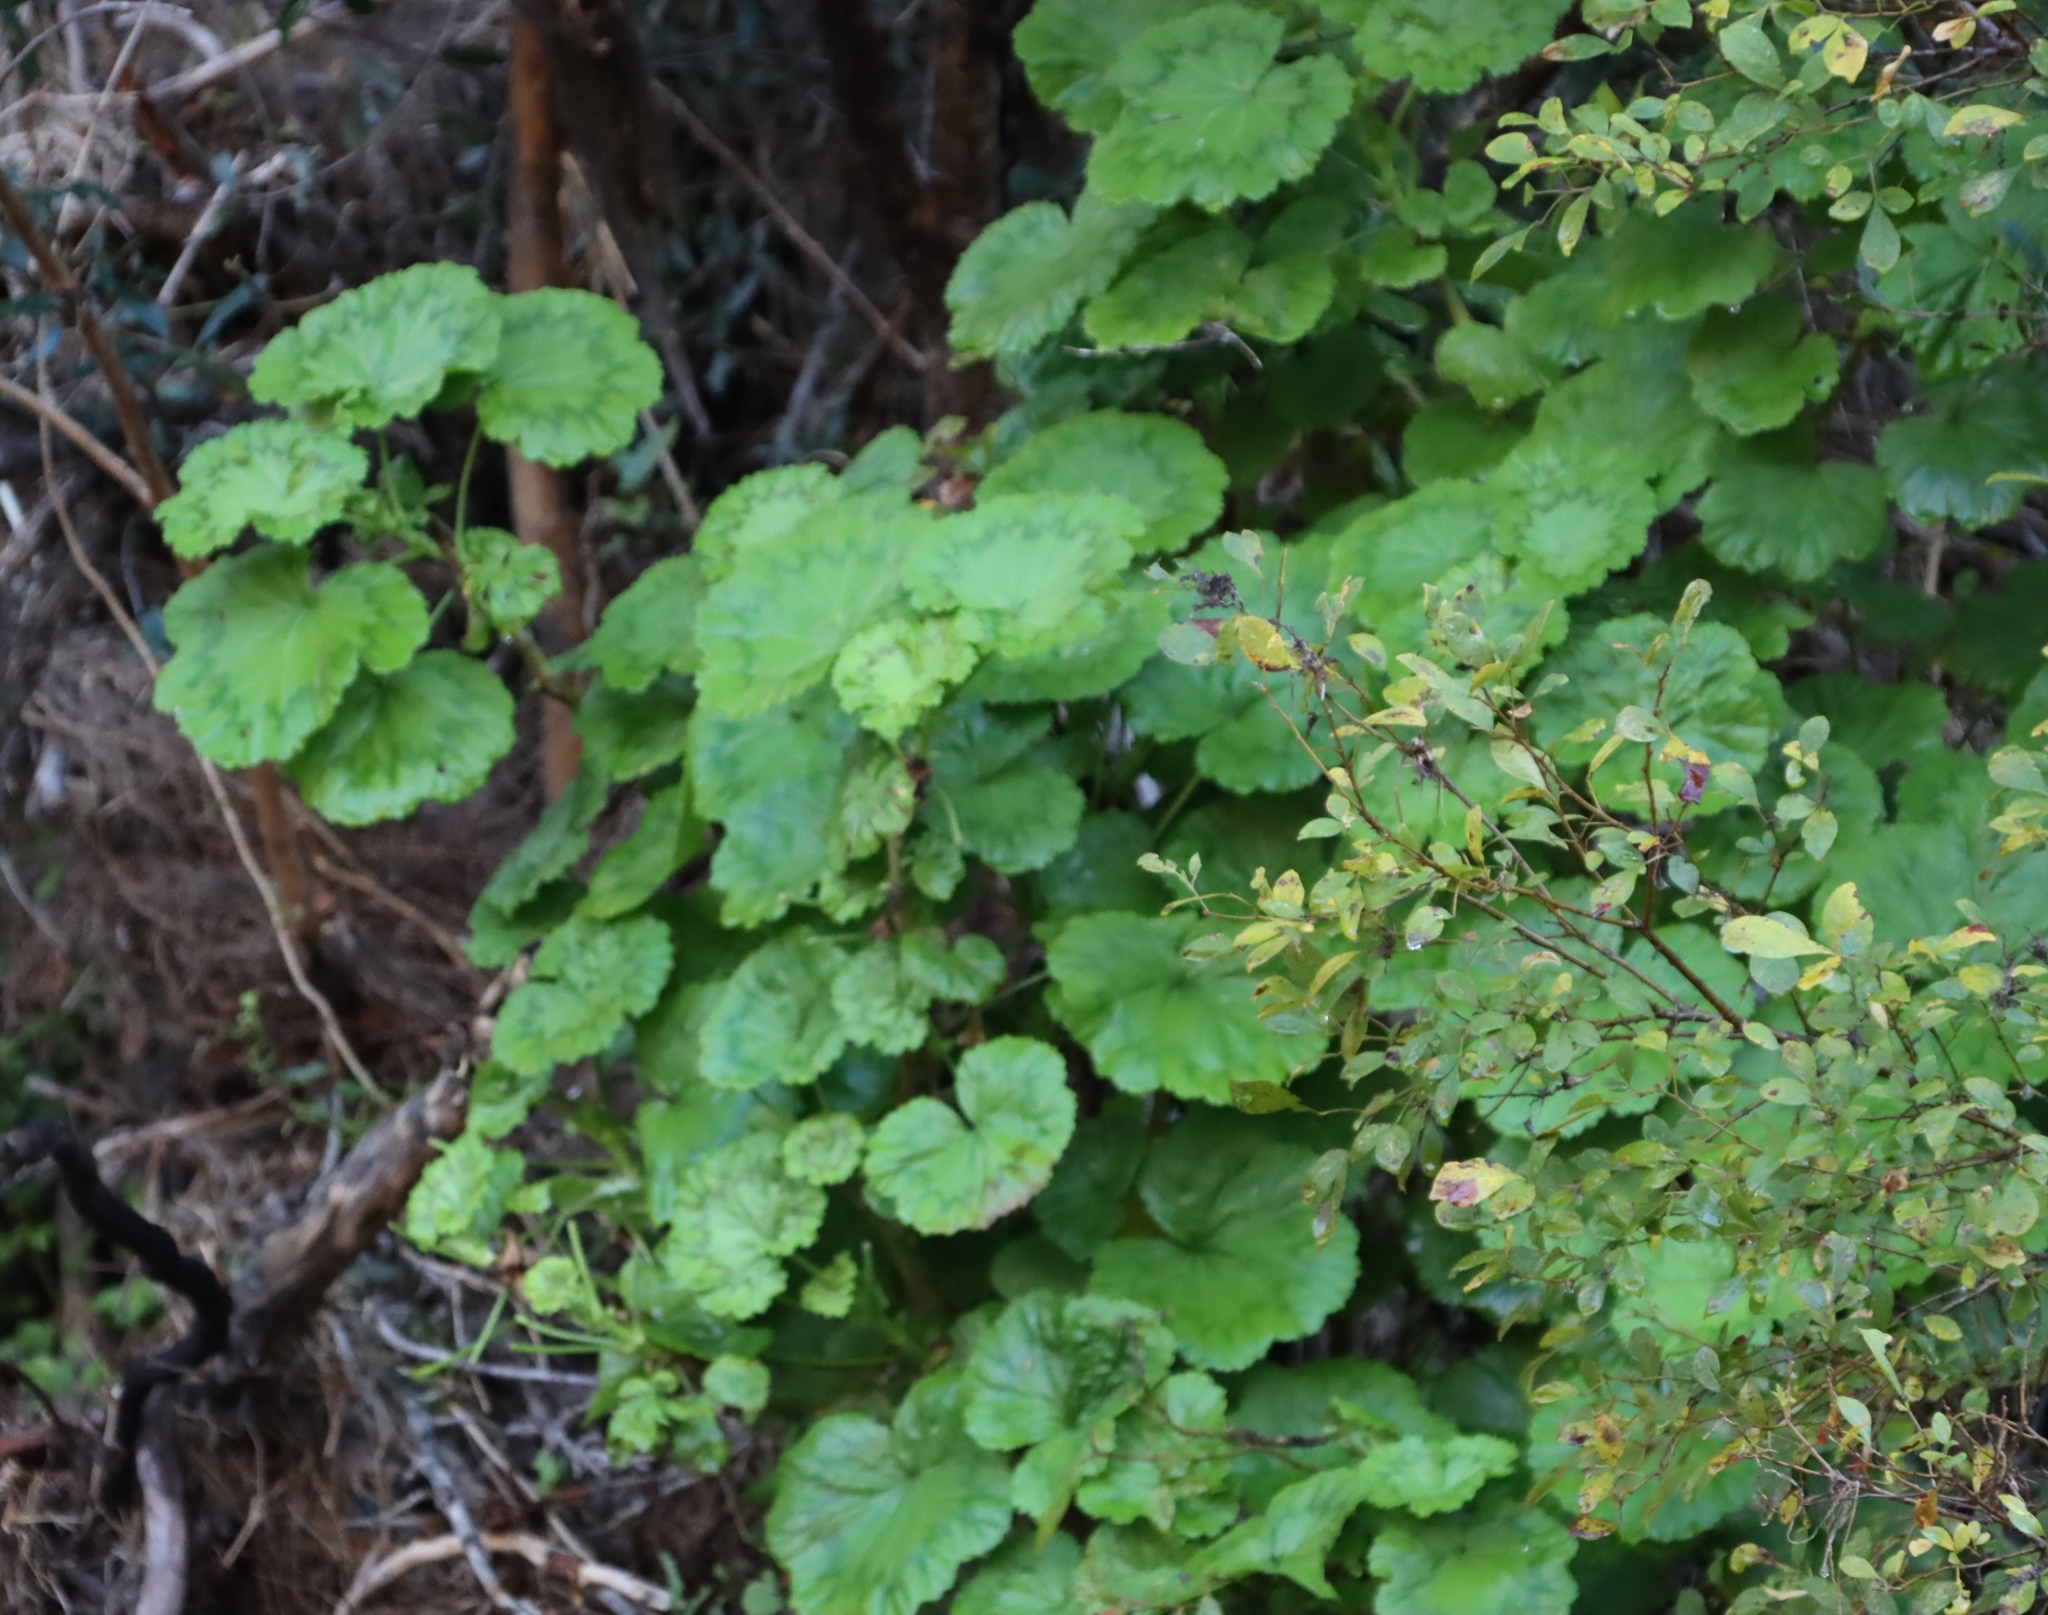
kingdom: Plantae
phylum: Tracheophyta
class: Magnoliopsida
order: Geraniales
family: Geraniaceae
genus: Pelargonium
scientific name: Pelargonium zonale
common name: Horseshoe geranium
